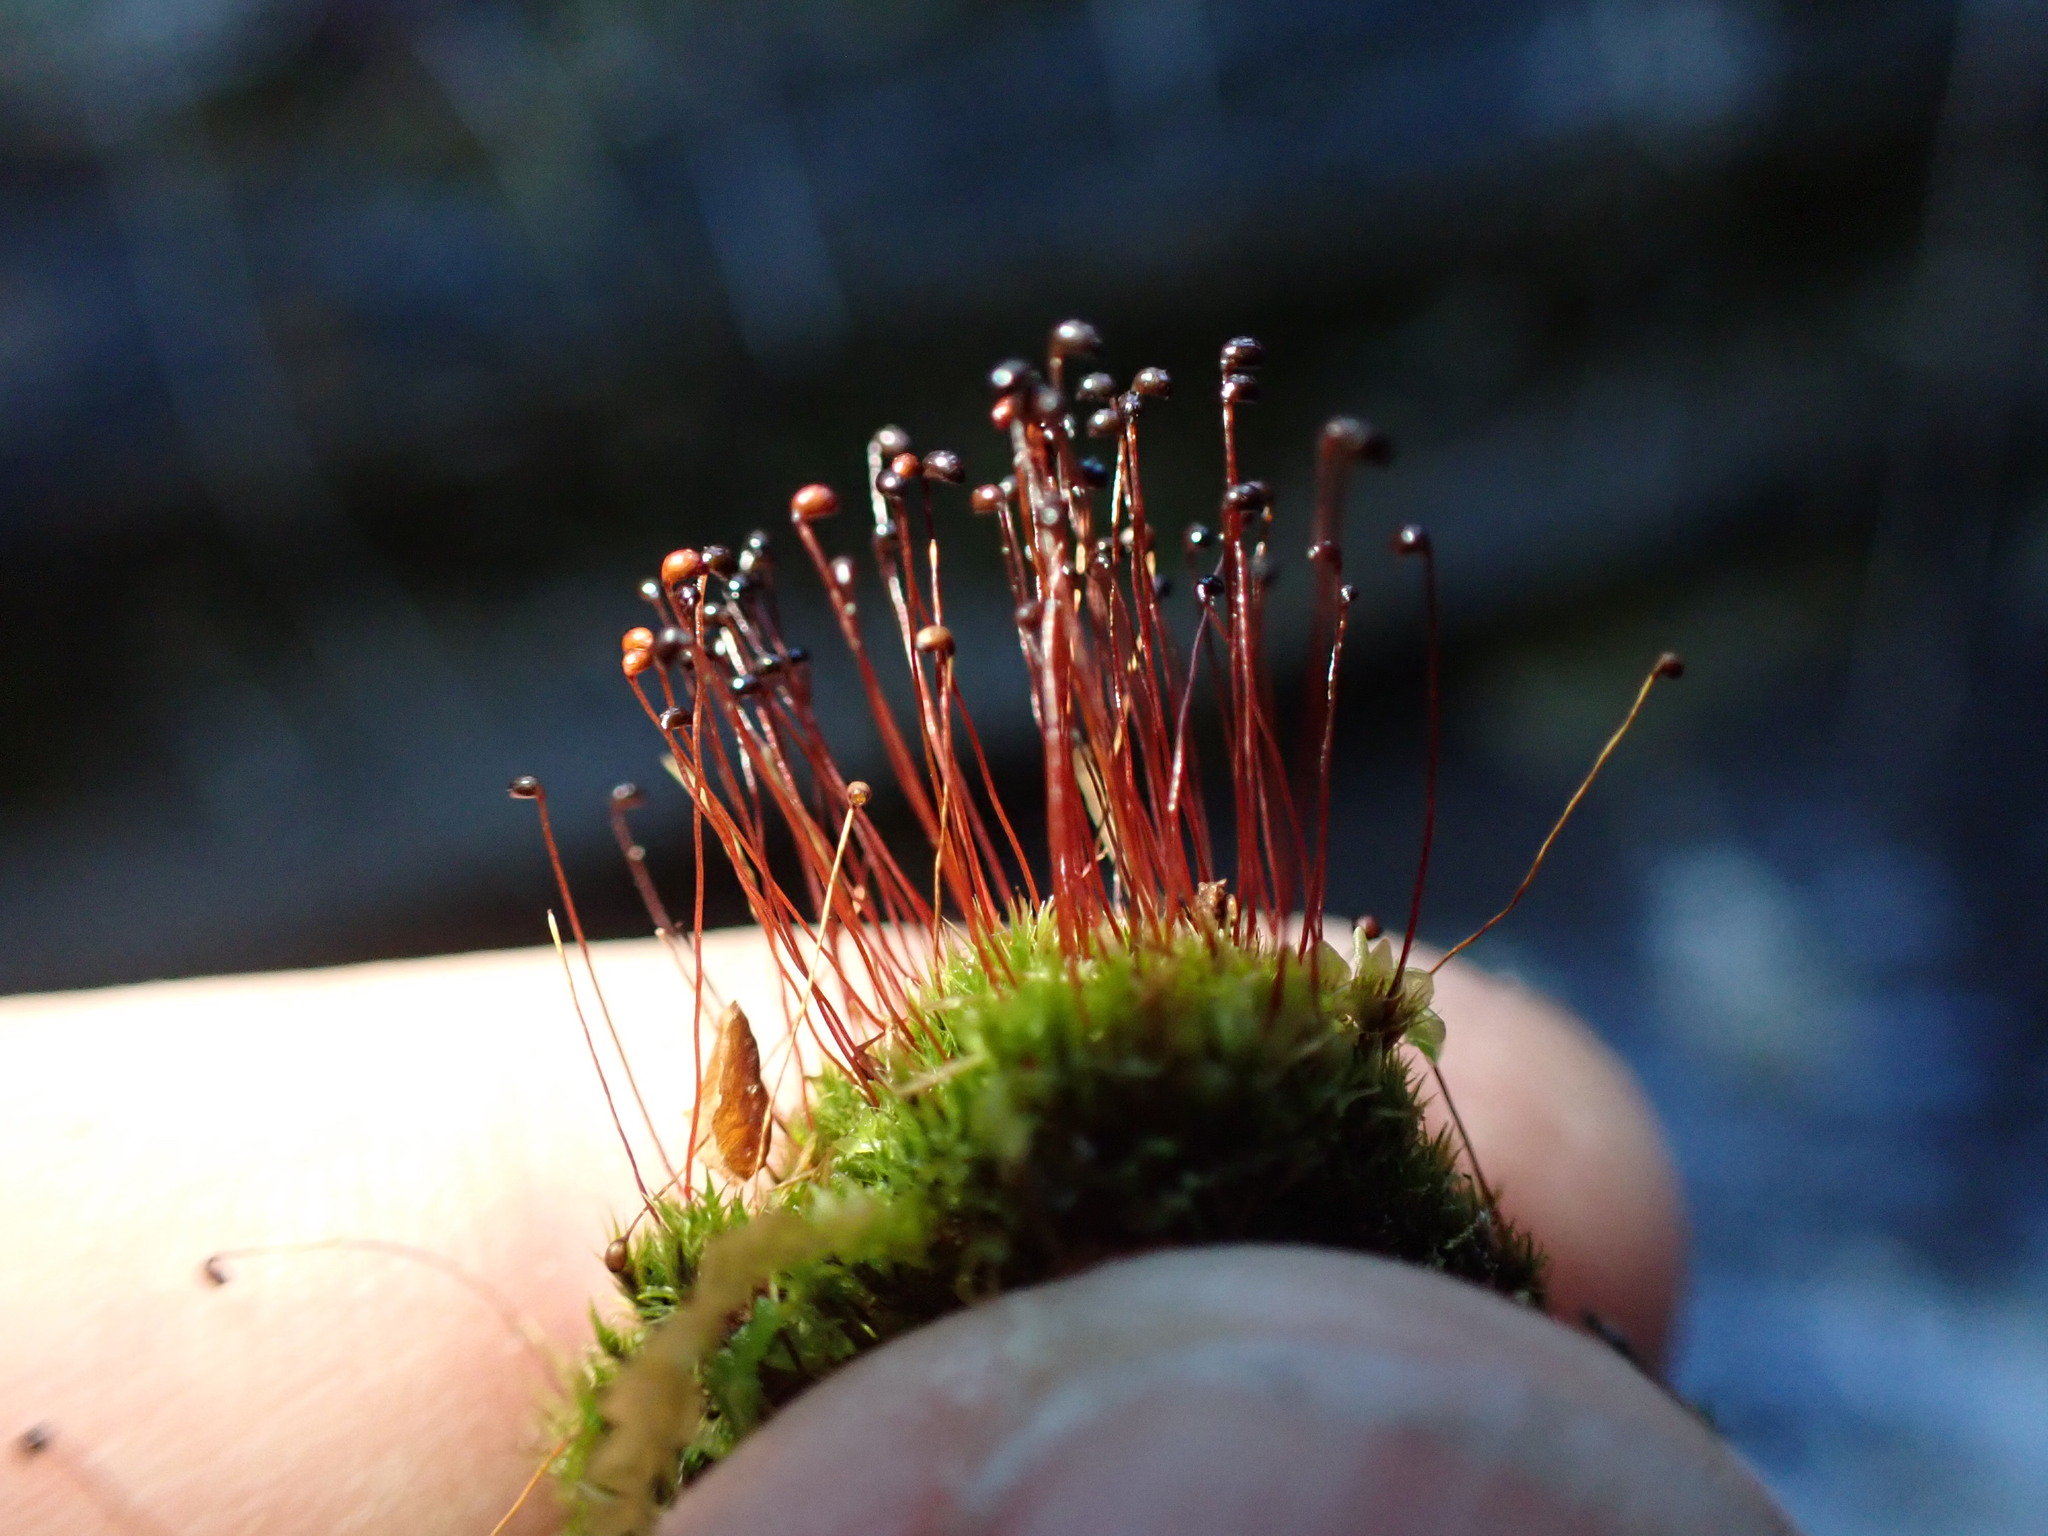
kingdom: Plantae
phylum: Bryophyta
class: Bryopsida
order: Catoscopiales
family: Catoscopiaceae
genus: Catoscopium
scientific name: Catoscopium nigritum
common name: Black golf club moss
